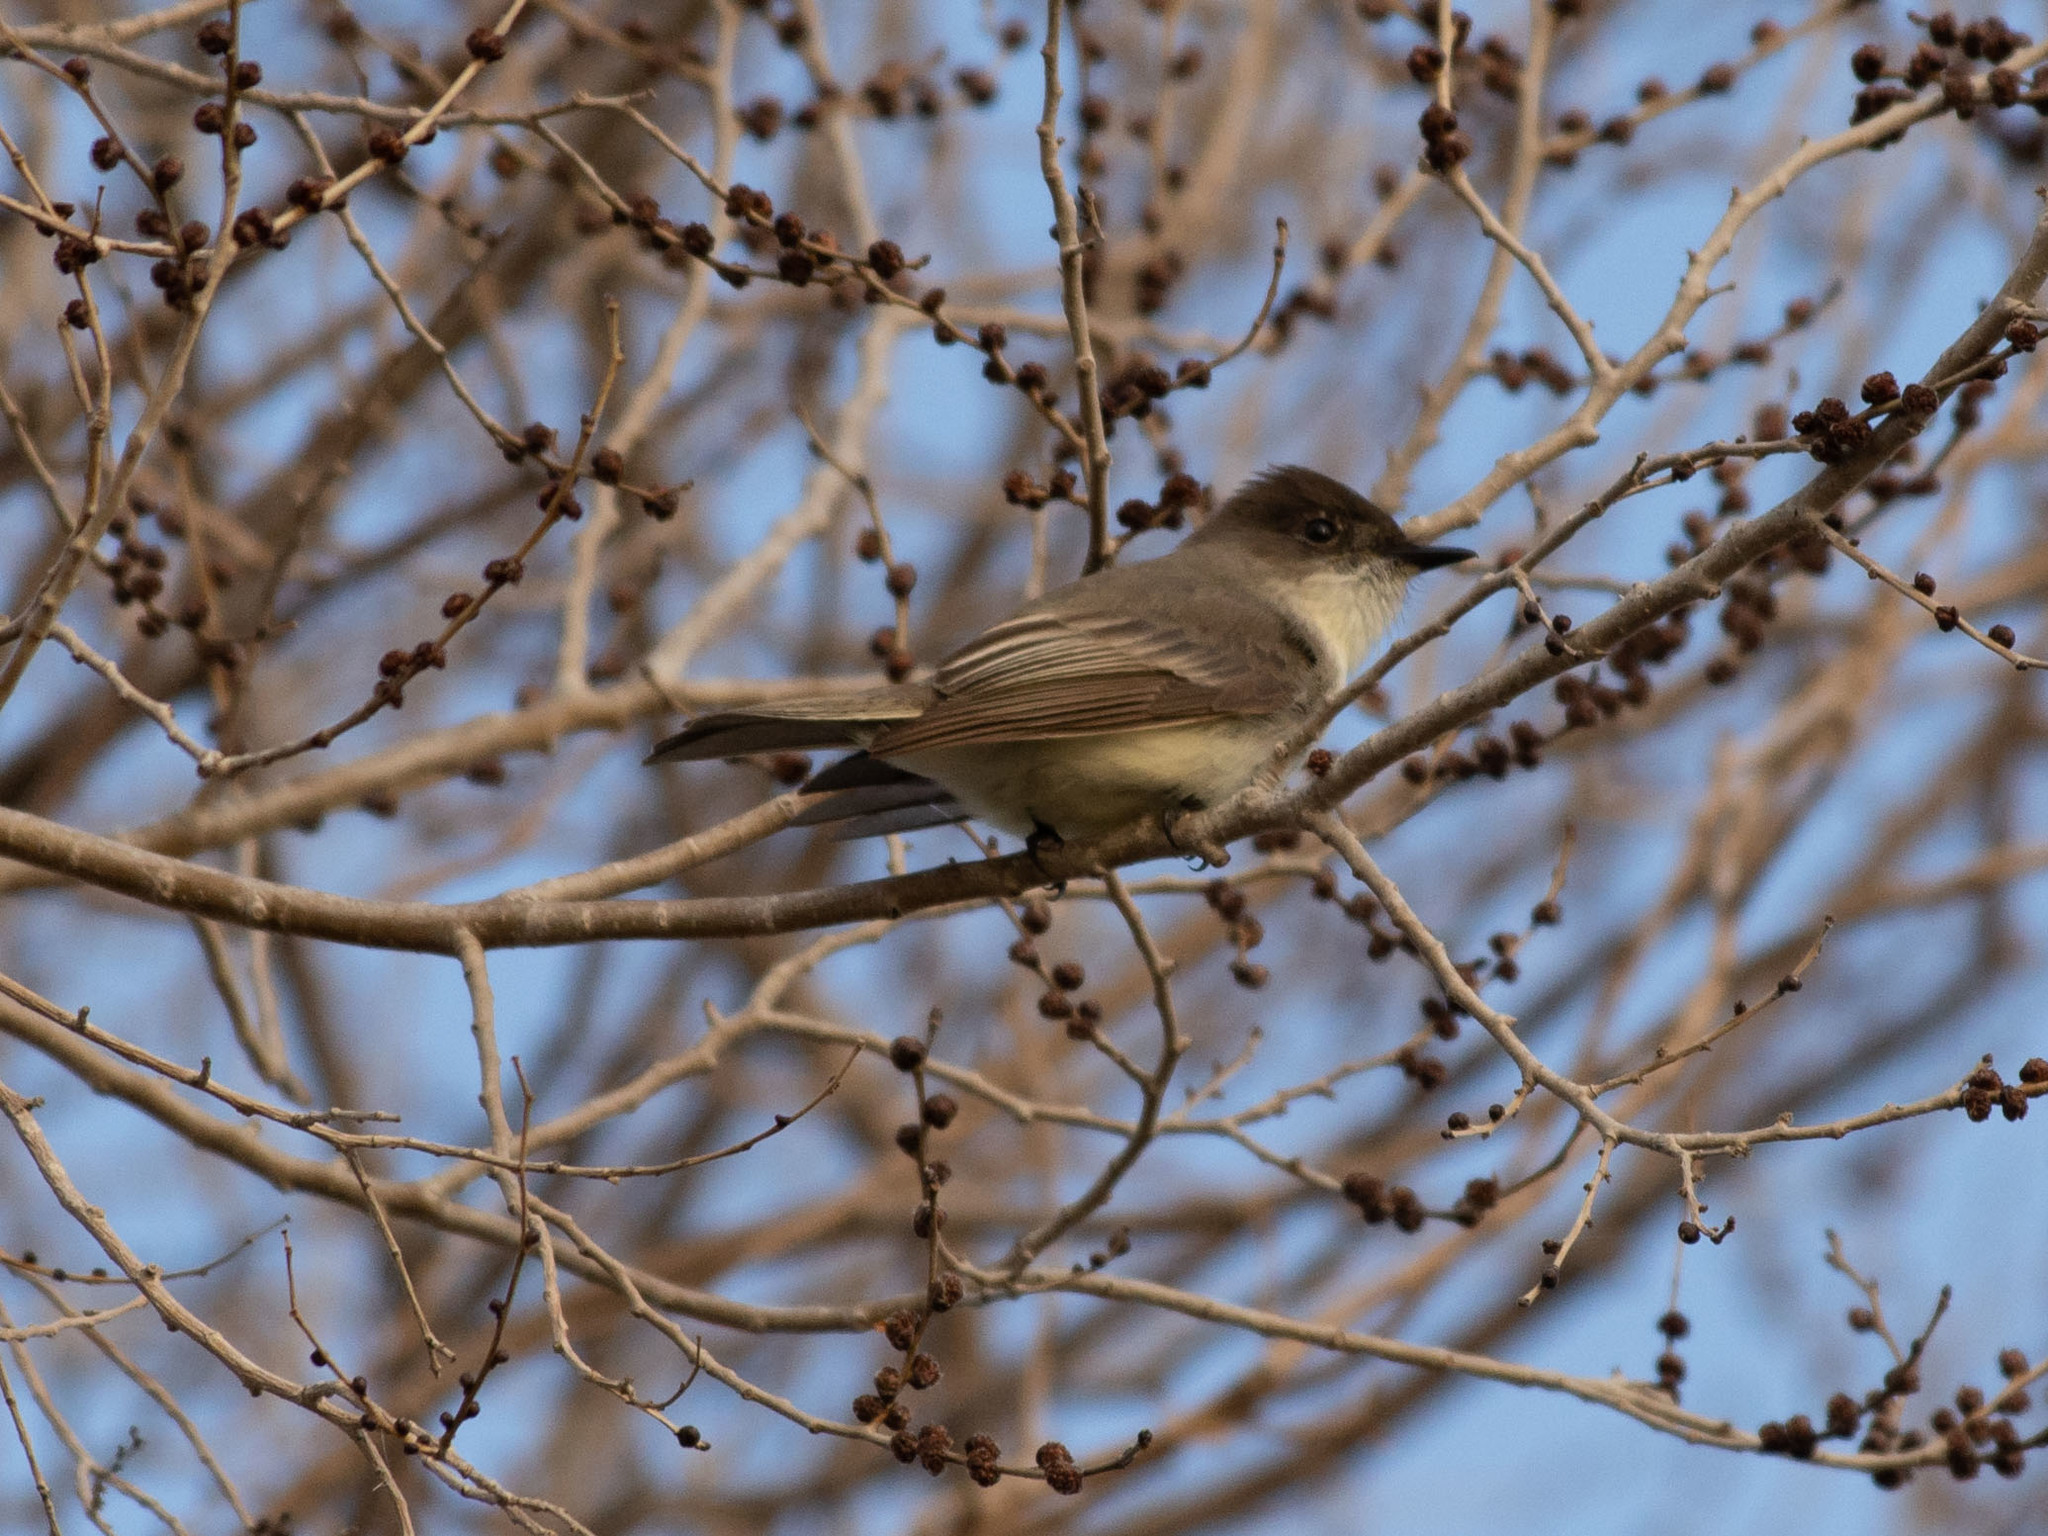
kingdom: Animalia
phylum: Chordata
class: Aves
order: Passeriformes
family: Tyrannidae
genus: Sayornis
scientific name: Sayornis phoebe
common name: Eastern phoebe
